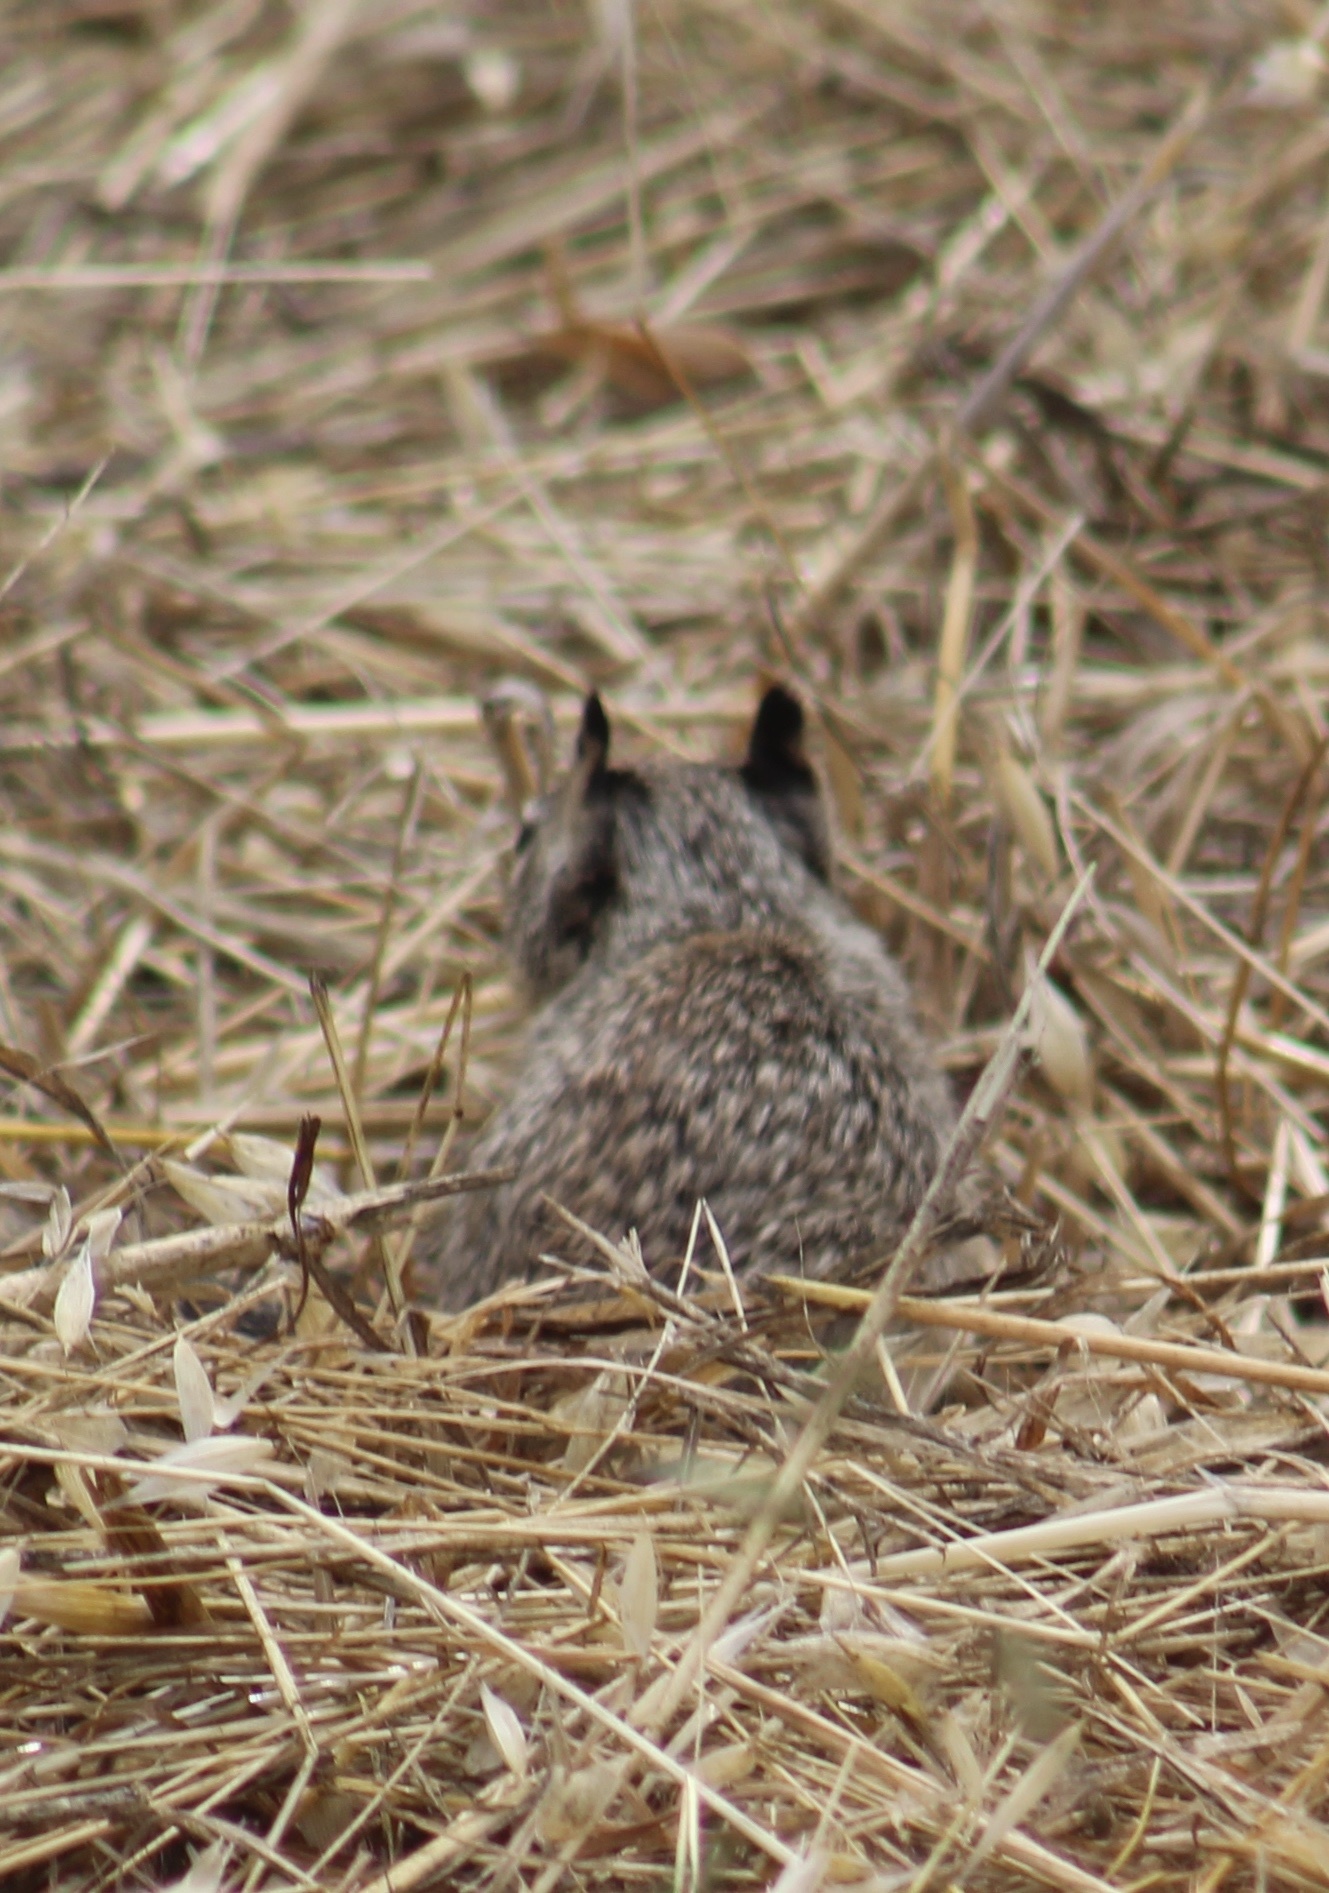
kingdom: Animalia
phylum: Chordata
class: Mammalia
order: Rodentia
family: Sciuridae
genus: Otospermophilus
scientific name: Otospermophilus beecheyi
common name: California ground squirrel
